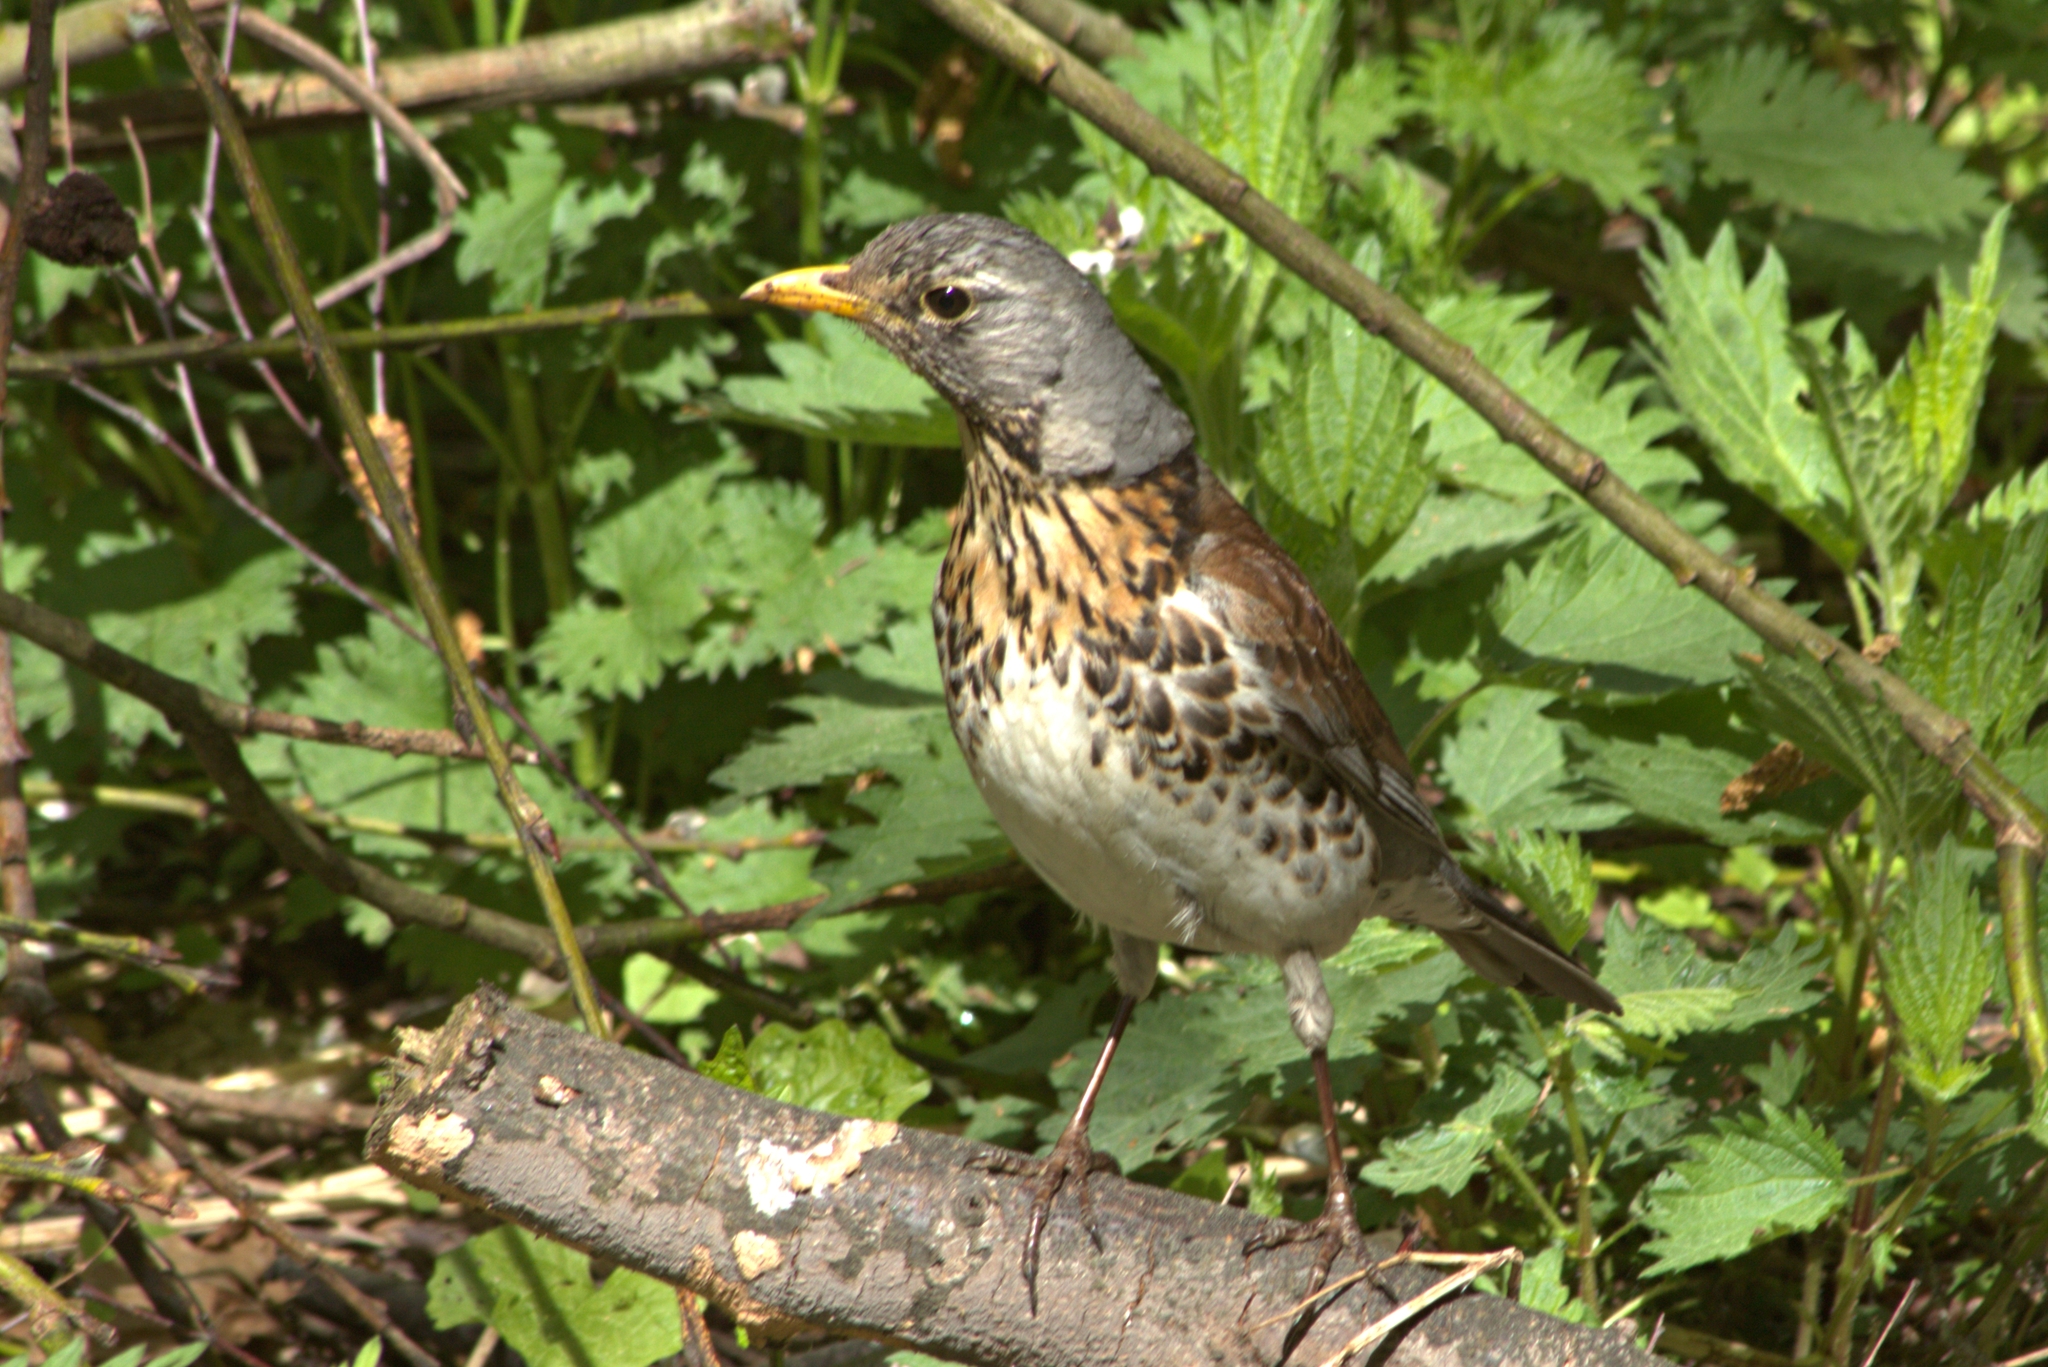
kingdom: Animalia
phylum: Chordata
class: Aves
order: Passeriformes
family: Turdidae
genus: Turdus
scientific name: Turdus pilaris
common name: Fieldfare
